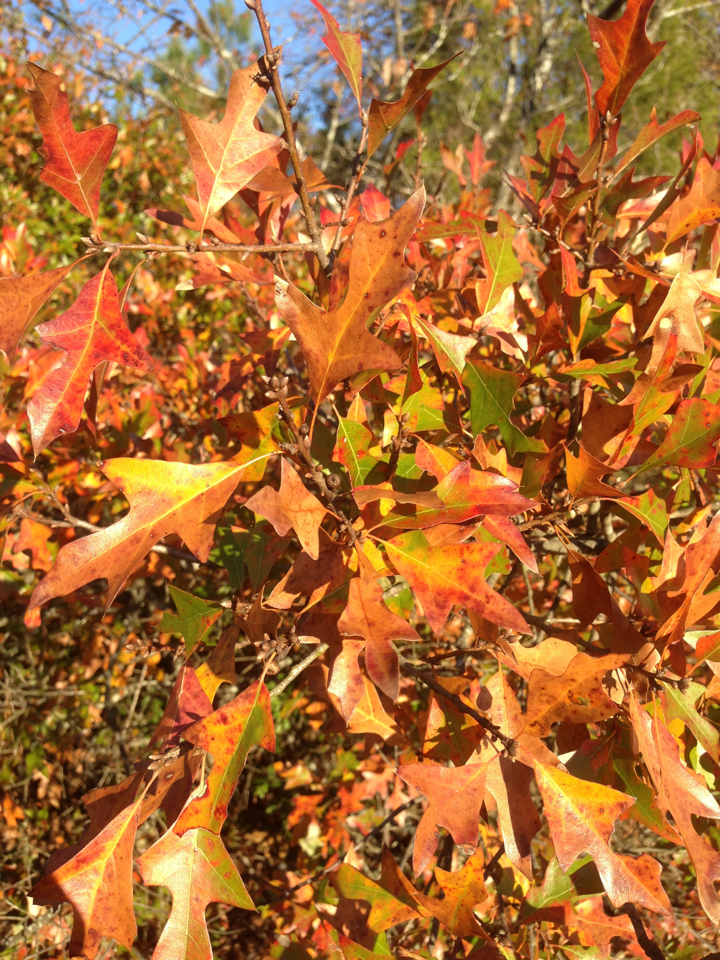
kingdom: Plantae
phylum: Tracheophyta
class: Magnoliopsida
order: Fagales
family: Fagaceae
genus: Quercus
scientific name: Quercus georgiana
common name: Georgia oak
